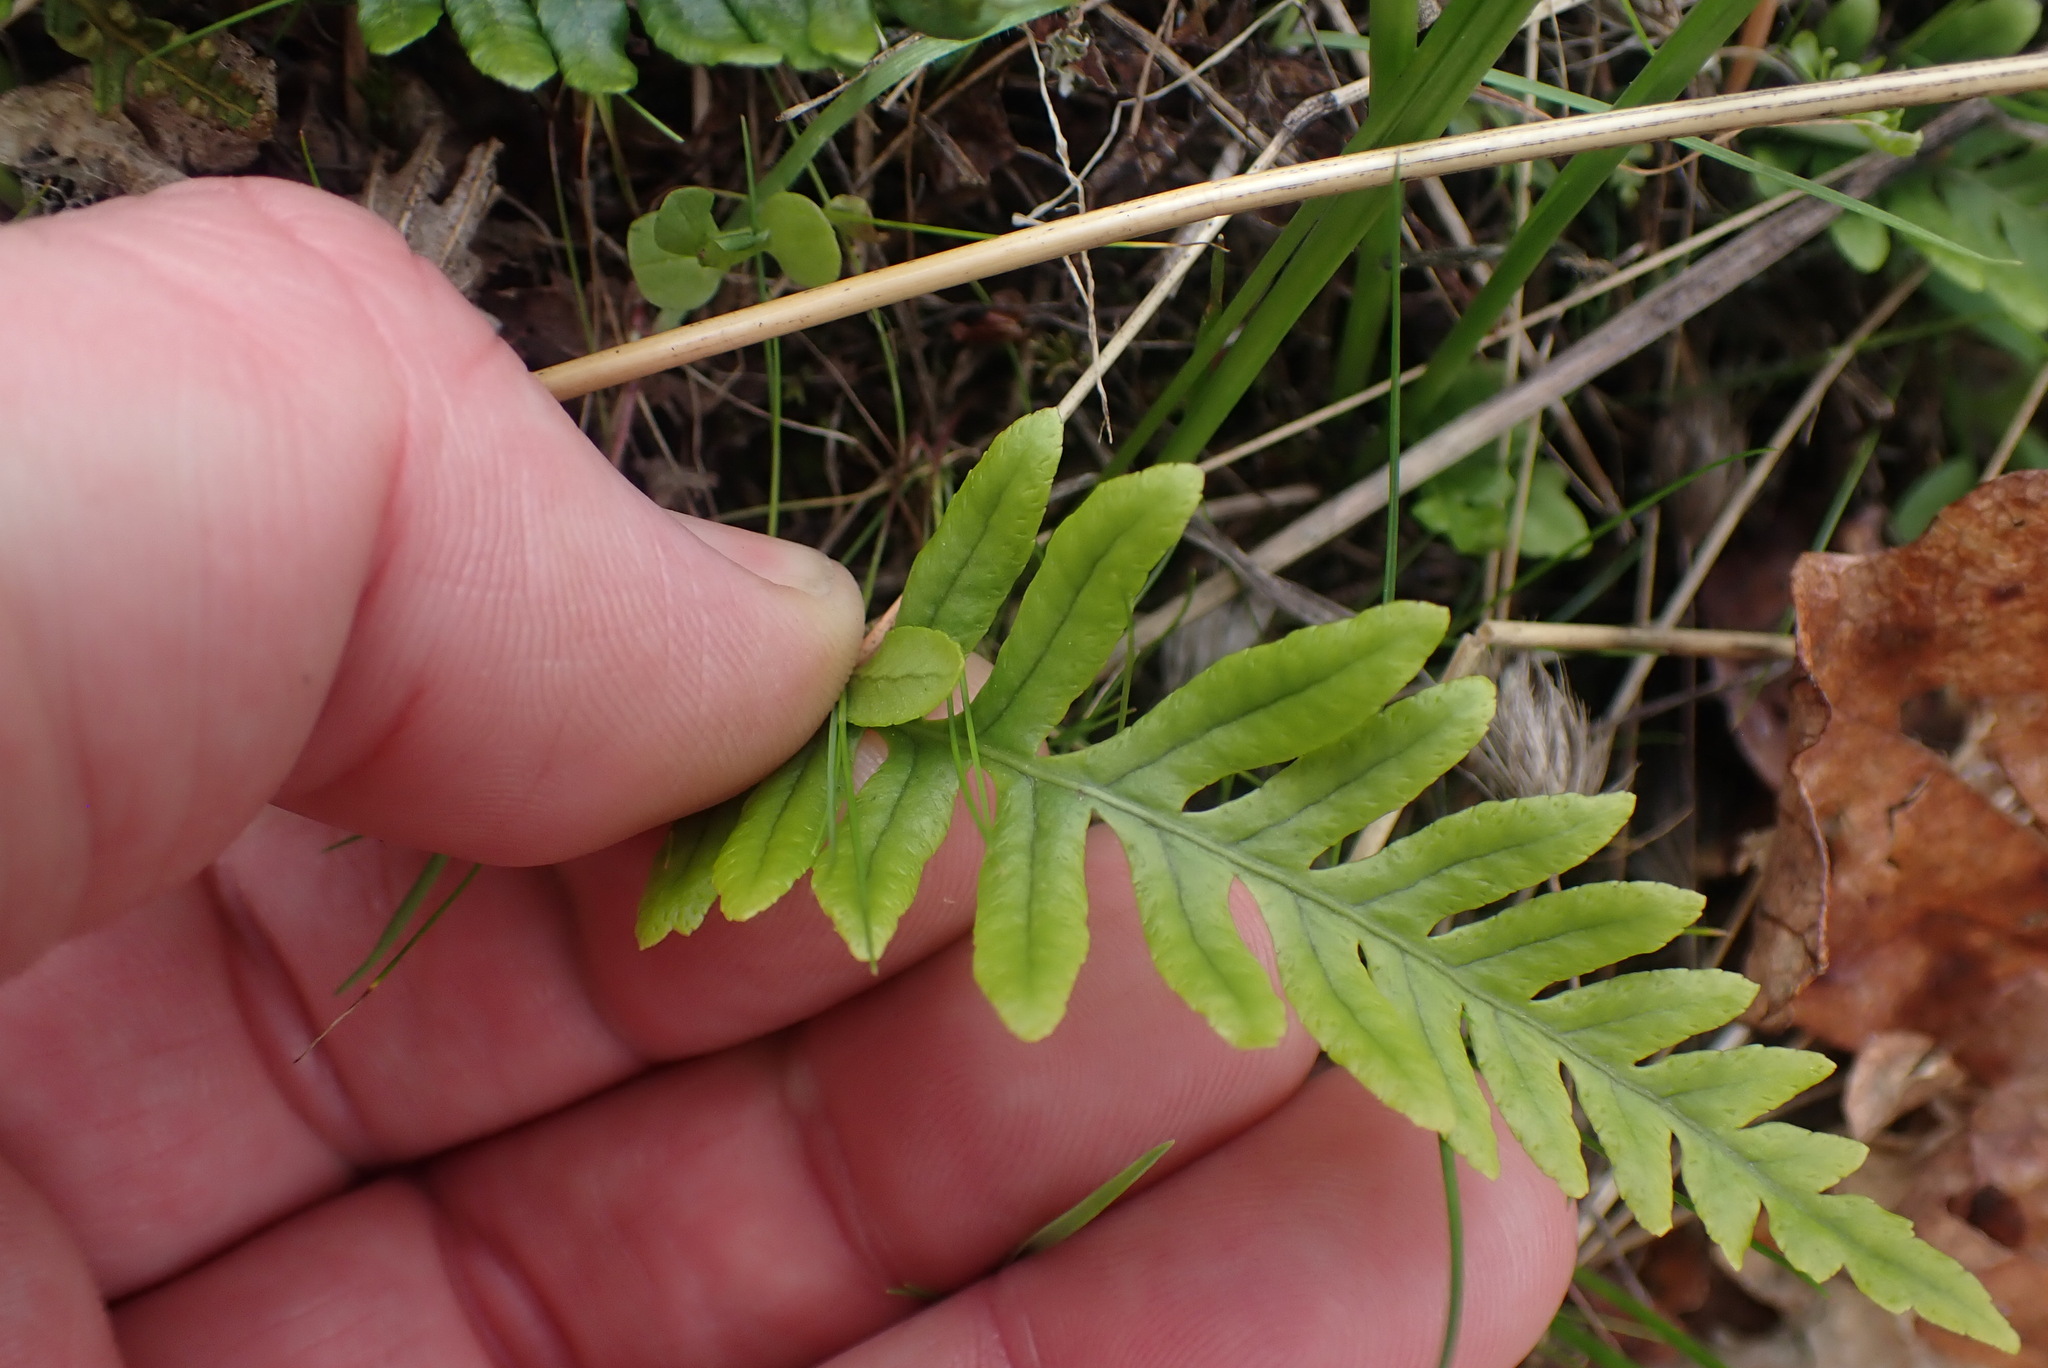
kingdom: Plantae
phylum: Tracheophyta
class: Polypodiopsida
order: Polypodiales
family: Polypodiaceae
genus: Polypodium
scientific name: Polypodium glycyrrhiza
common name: Licorice fern
